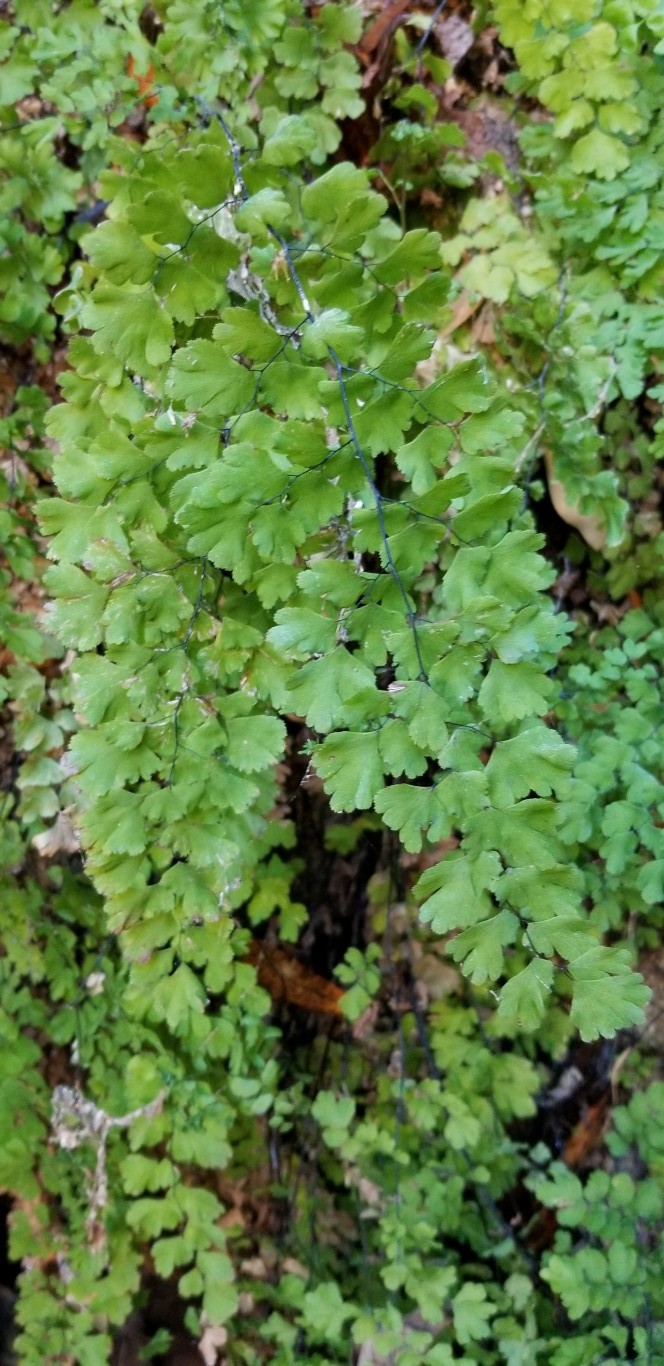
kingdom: Plantae
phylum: Tracheophyta
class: Polypodiopsida
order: Polypodiales
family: Pteridaceae
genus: Adiantum
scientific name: Adiantum capillus-veneris
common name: Maidenhair fern
